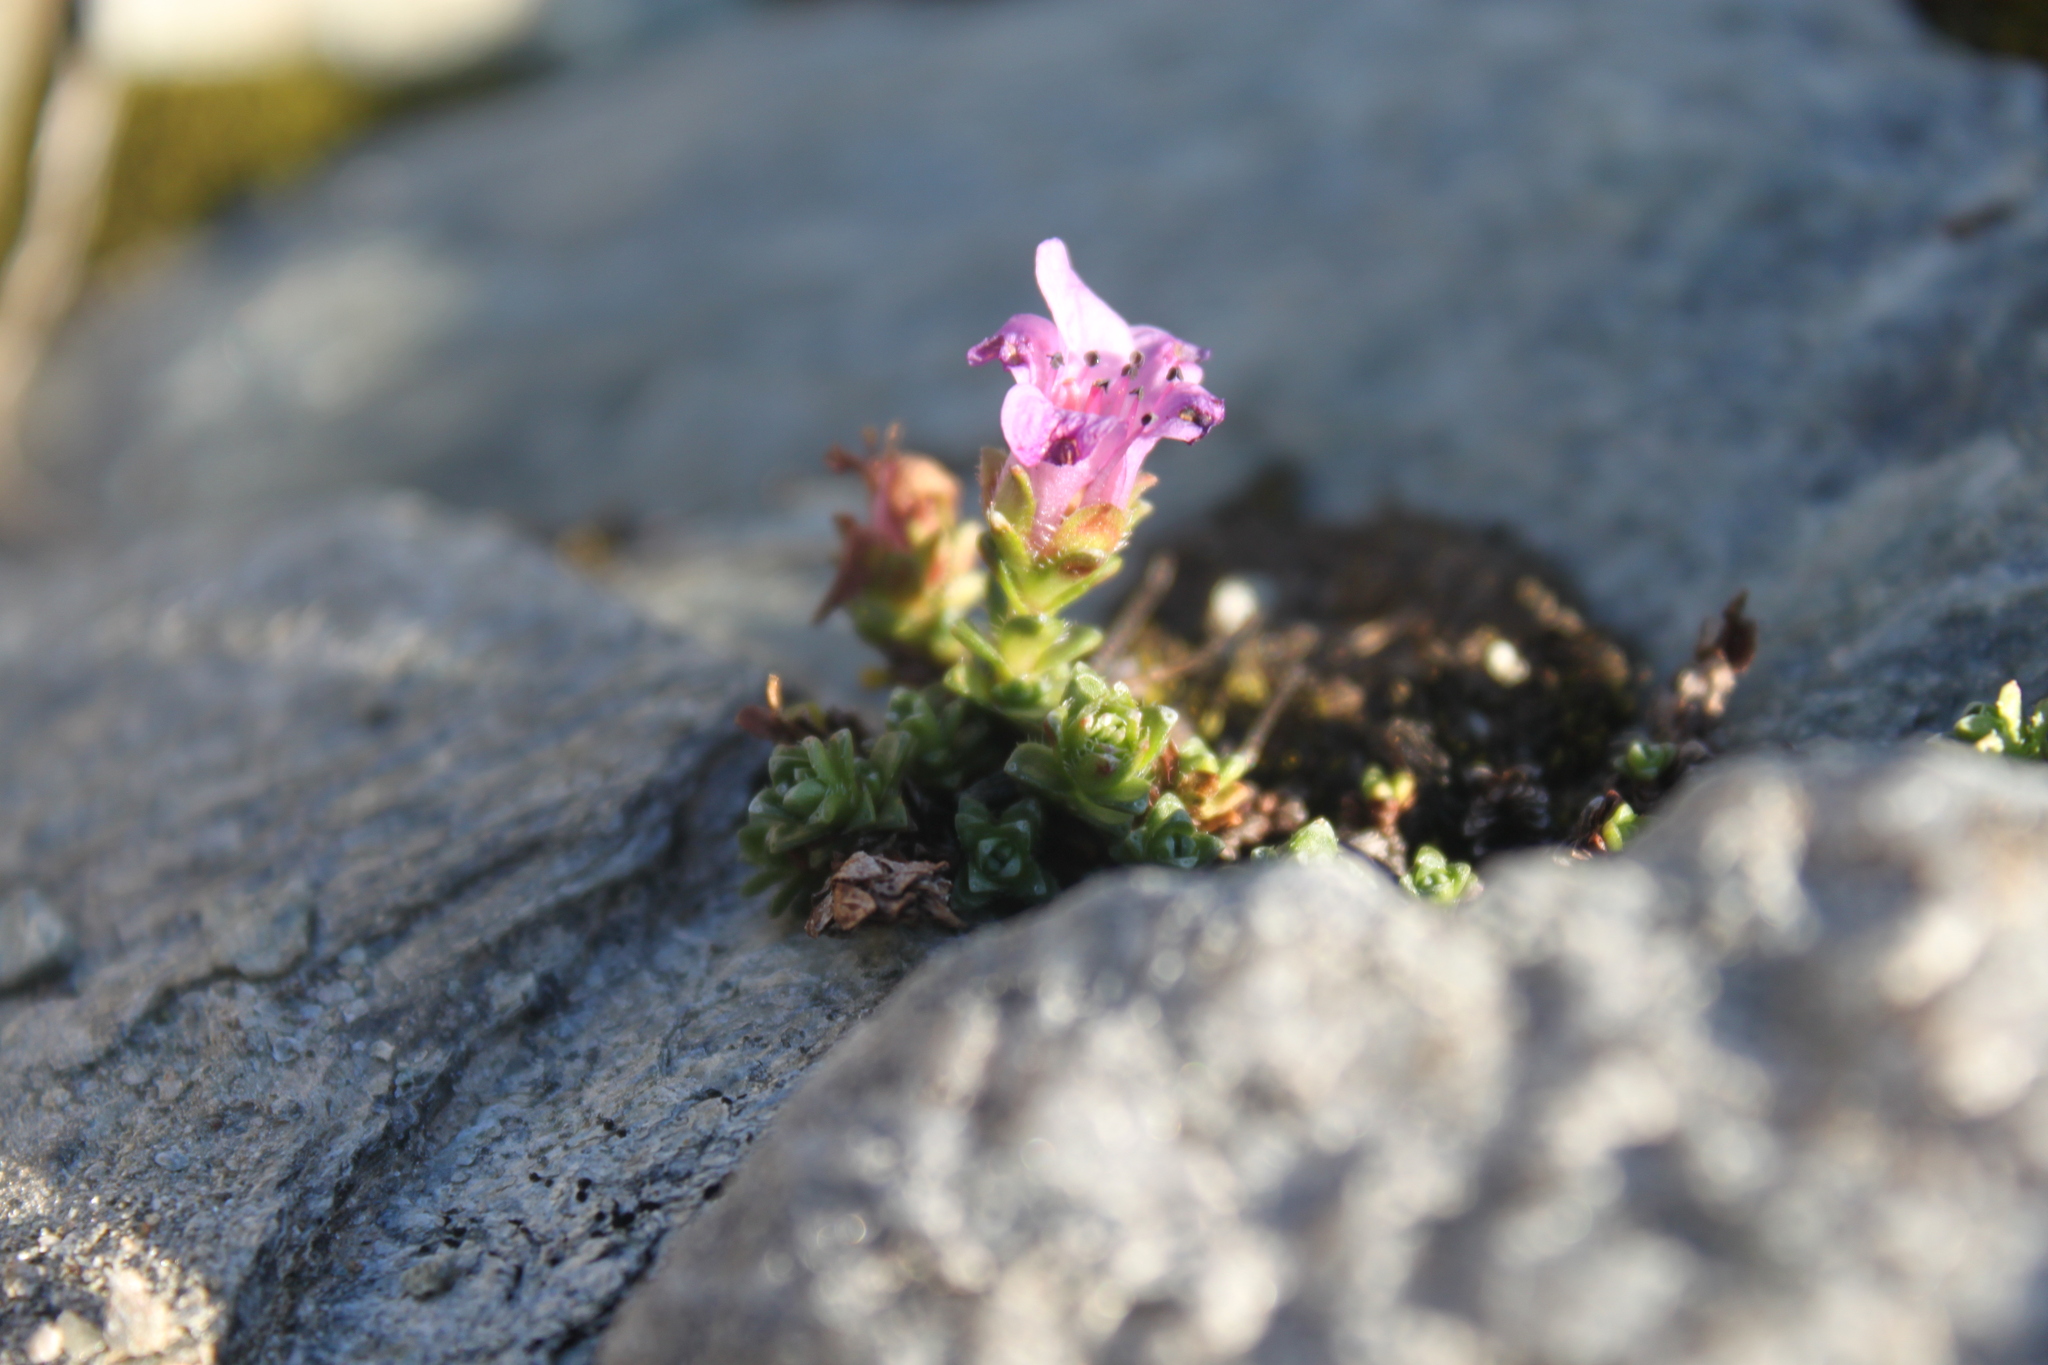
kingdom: Plantae
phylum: Tracheophyta
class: Magnoliopsida
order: Saxifragales
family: Saxifragaceae
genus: Saxifraga
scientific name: Saxifraga oppositifolia
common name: Purple saxifrage
